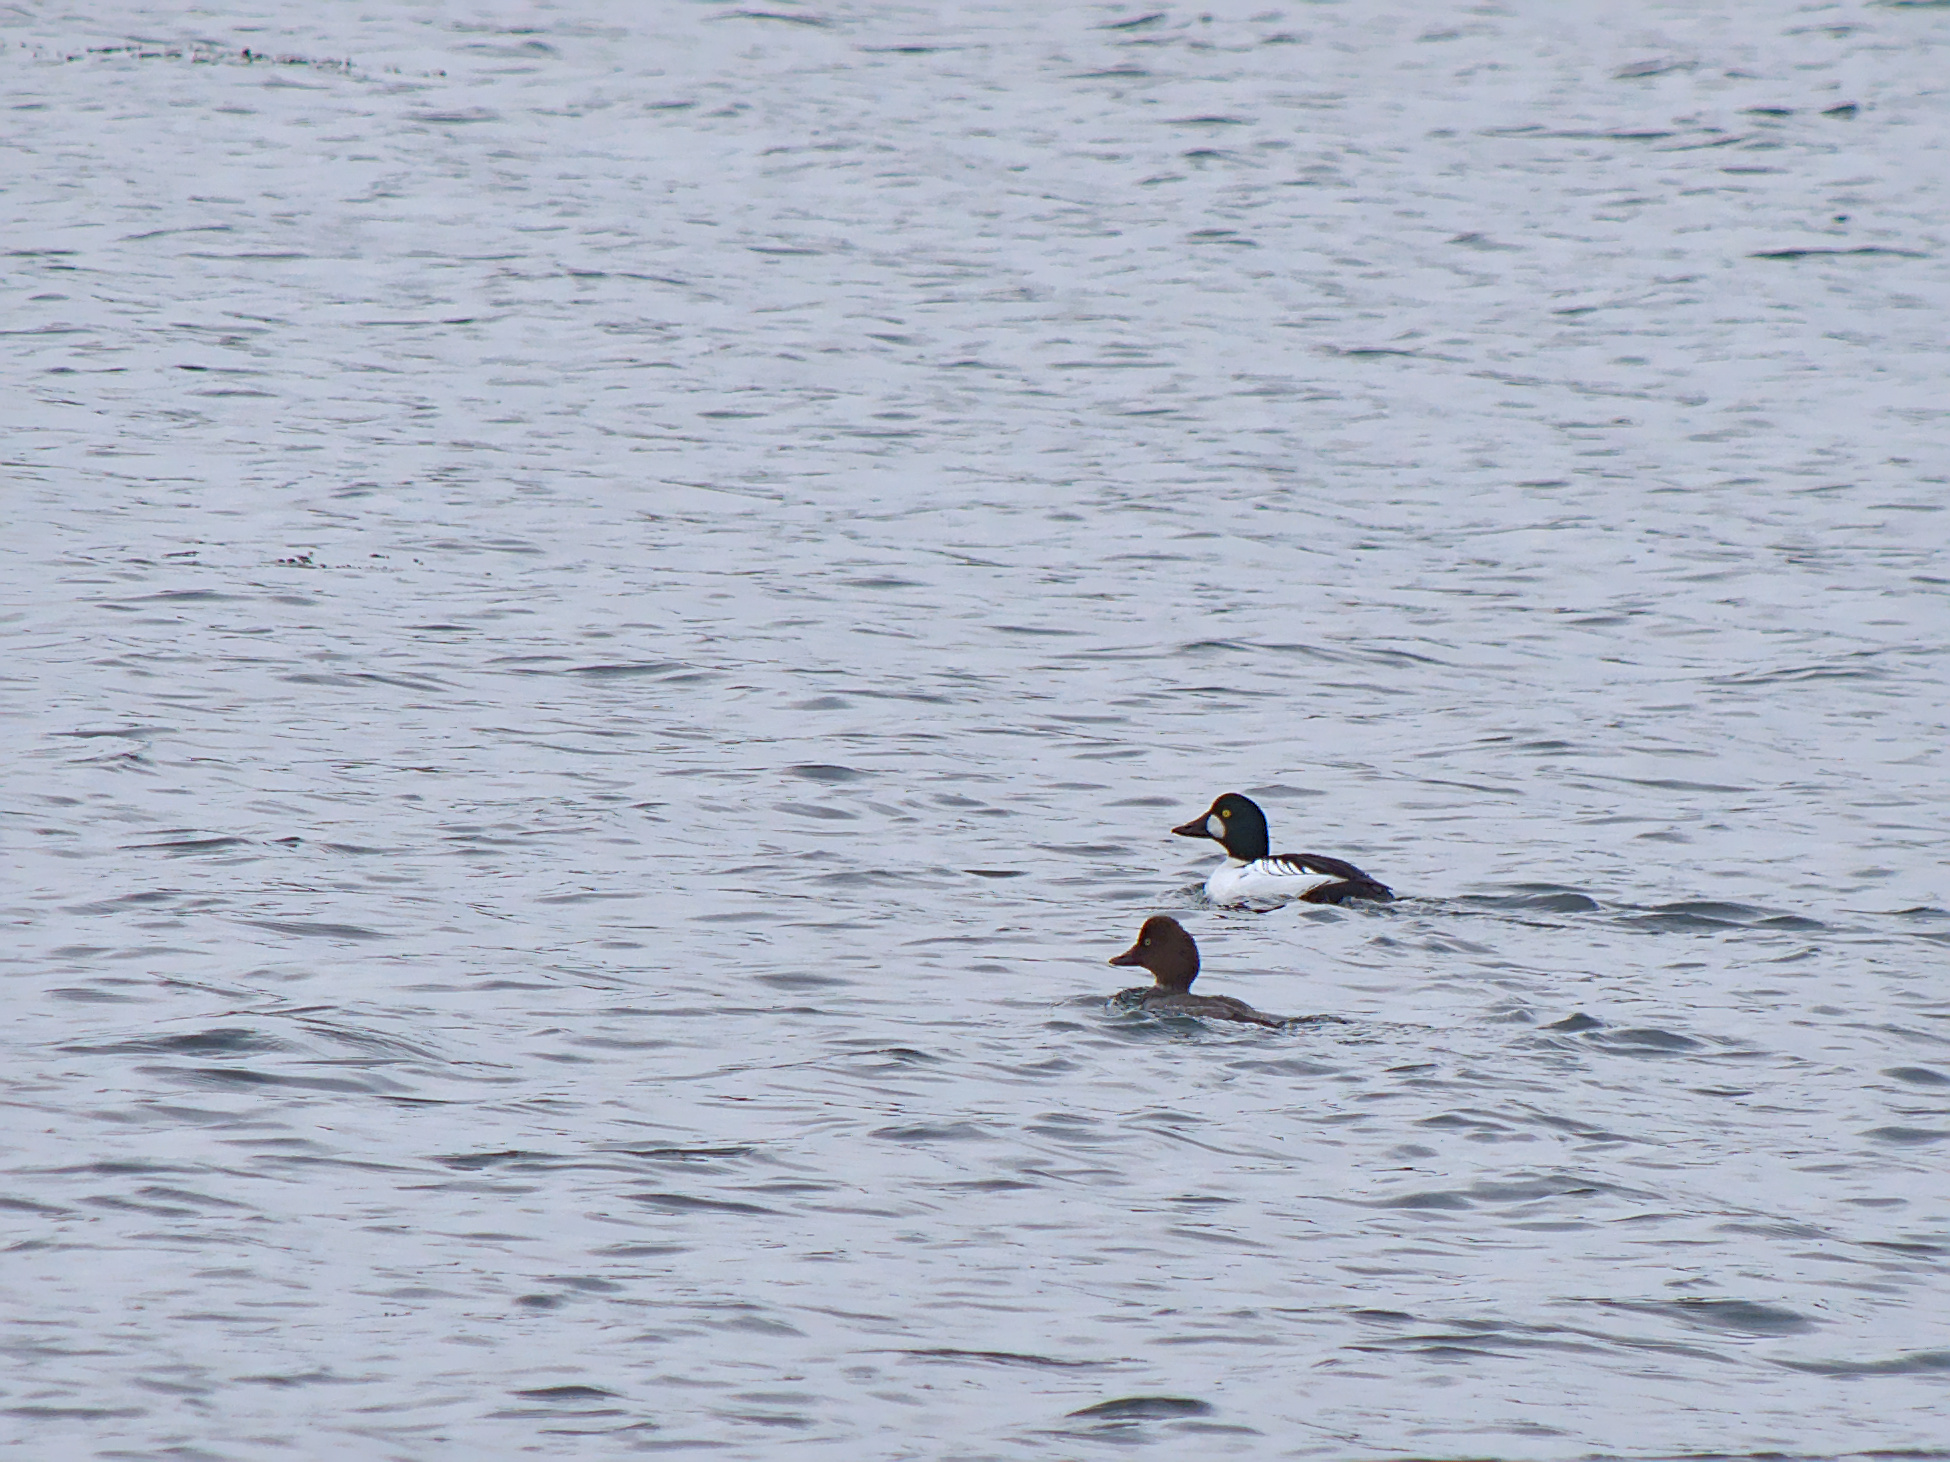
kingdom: Animalia
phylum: Chordata
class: Aves
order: Anseriformes
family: Anatidae
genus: Bucephala
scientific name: Bucephala clangula
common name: Common goldeneye
